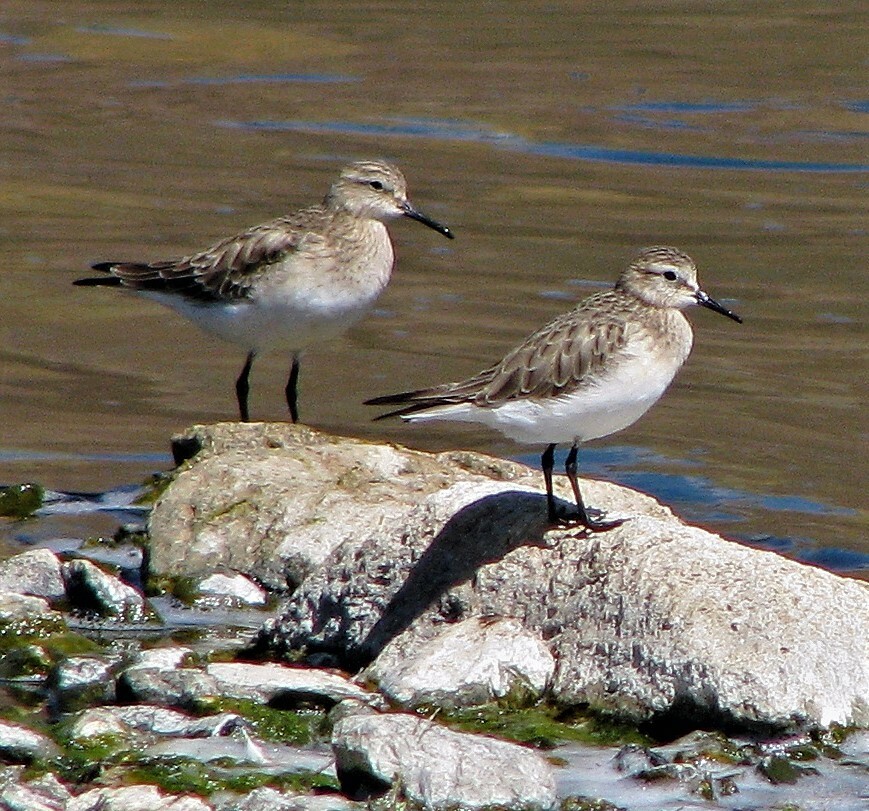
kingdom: Animalia
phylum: Chordata
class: Aves
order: Charadriiformes
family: Scolopacidae
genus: Calidris
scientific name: Calidris bairdii
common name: Baird's sandpiper
